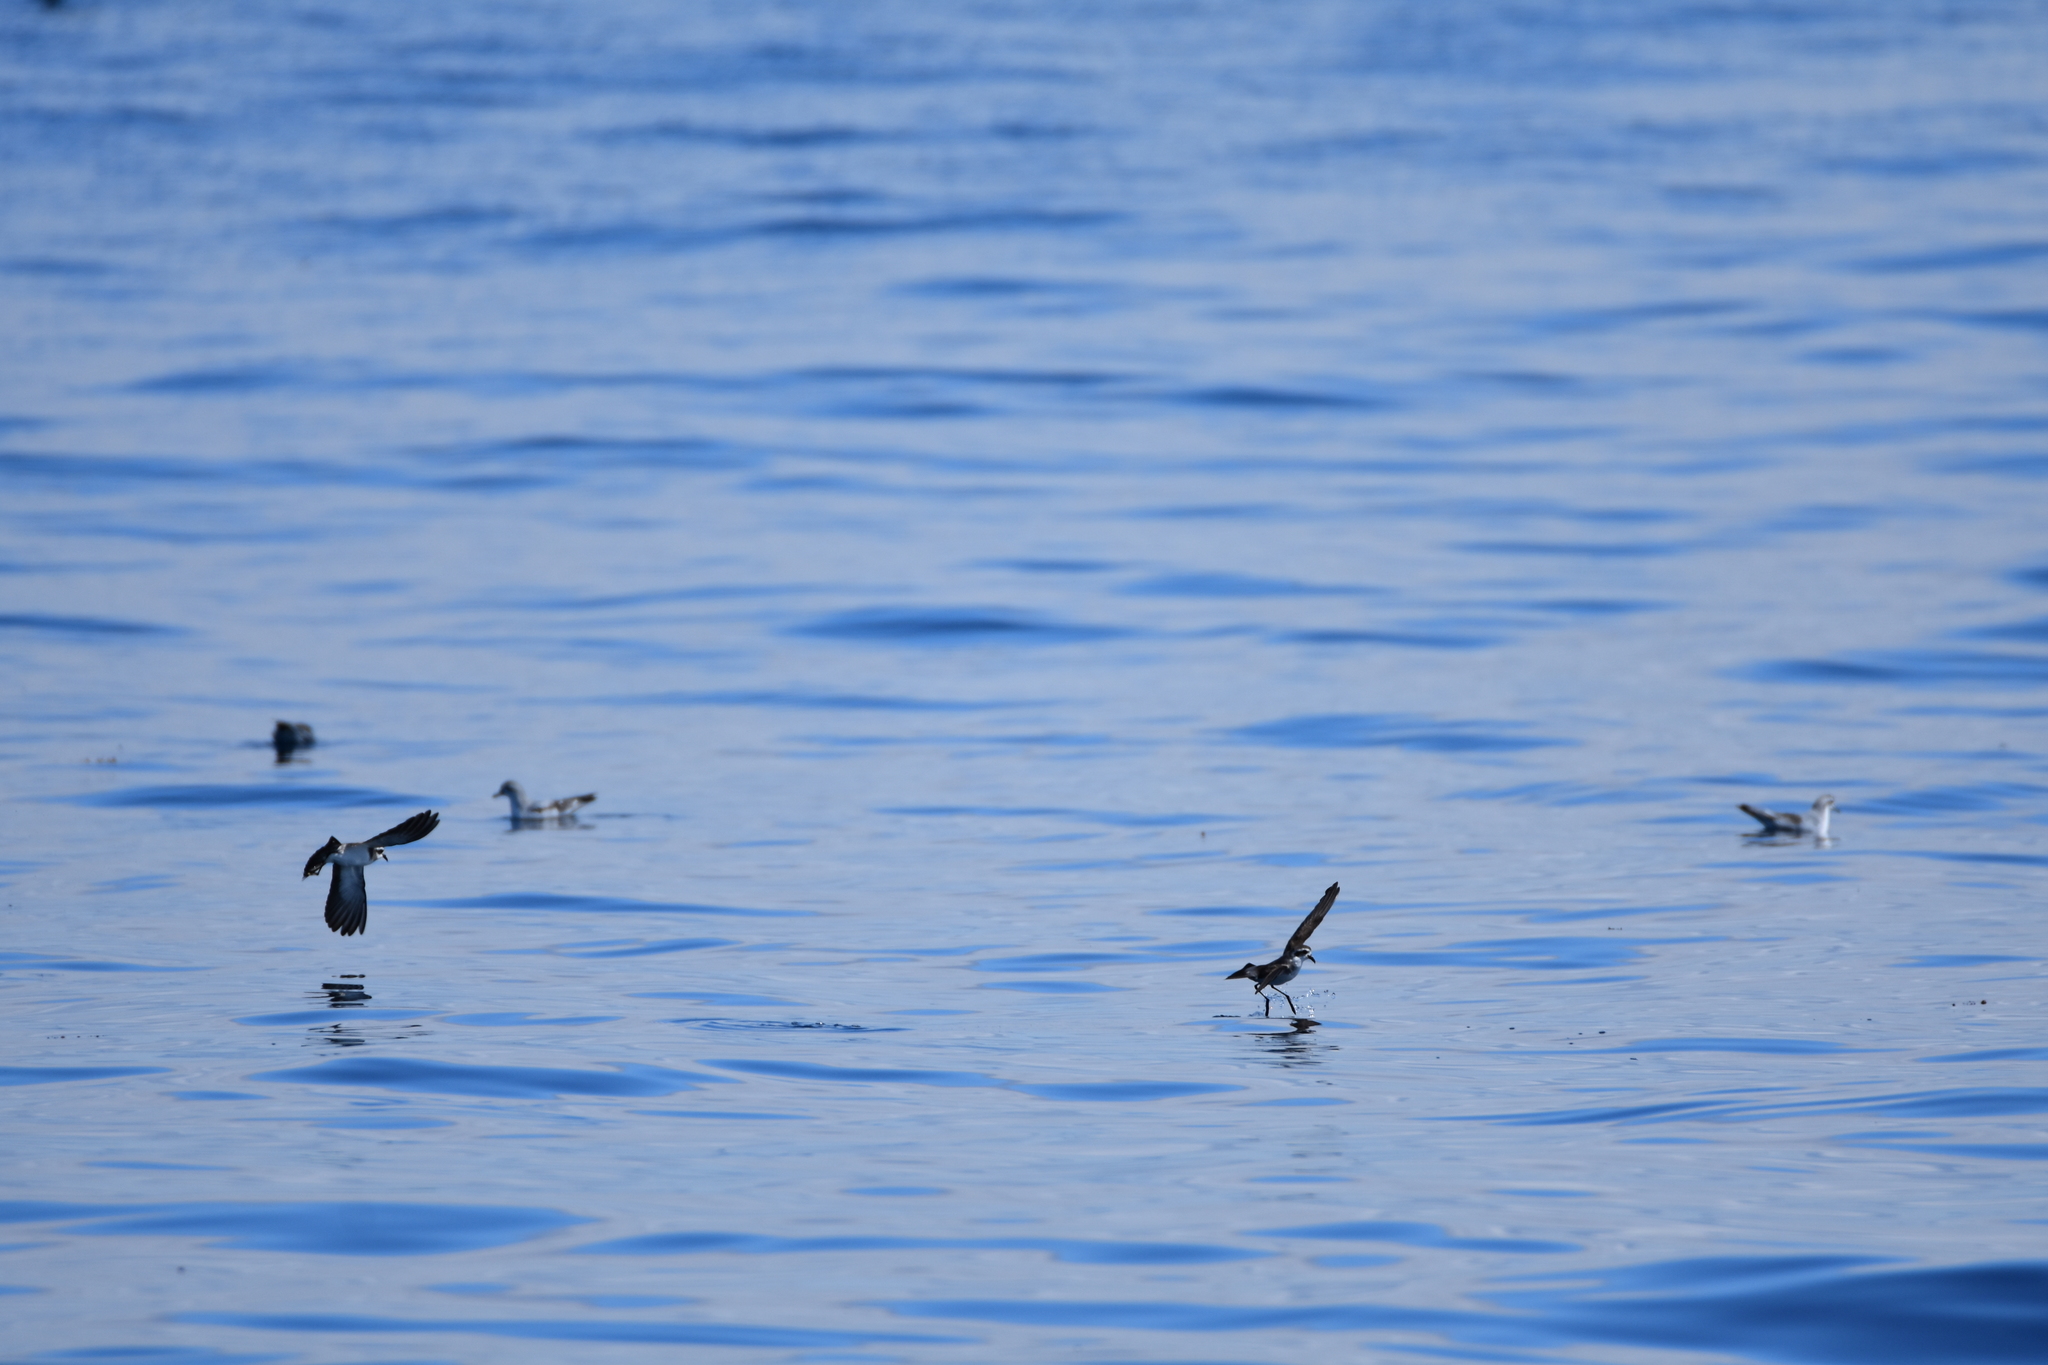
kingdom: Animalia
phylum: Chordata
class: Aves
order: Procellariiformes
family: Hydrobatidae
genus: Pelagodroma
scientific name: Pelagodroma marina
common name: White-faced storm-petrel
